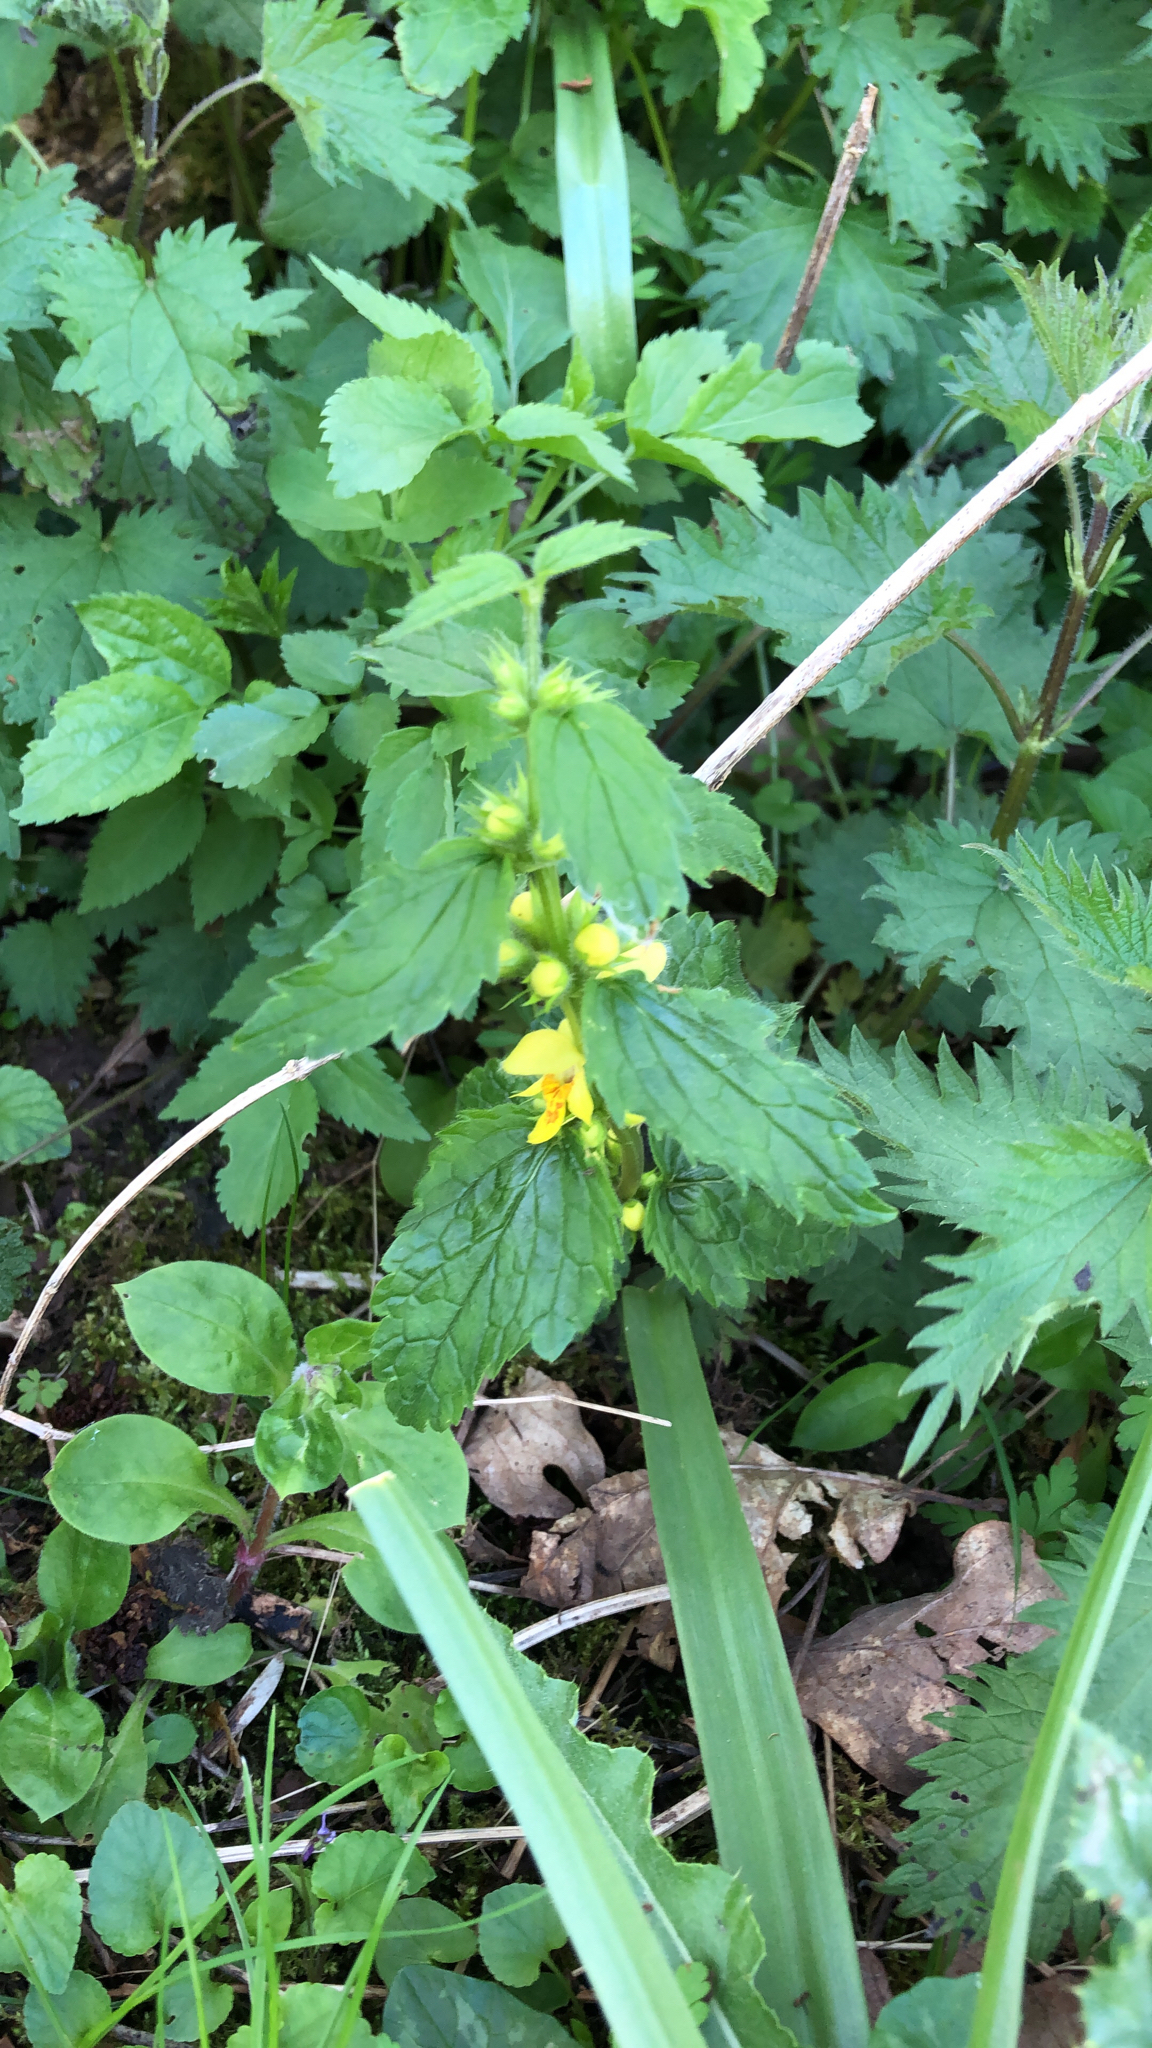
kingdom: Plantae
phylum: Tracheophyta
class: Magnoliopsida
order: Lamiales
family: Lamiaceae
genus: Lamium
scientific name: Lamium galeobdolon
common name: Yellow archangel
